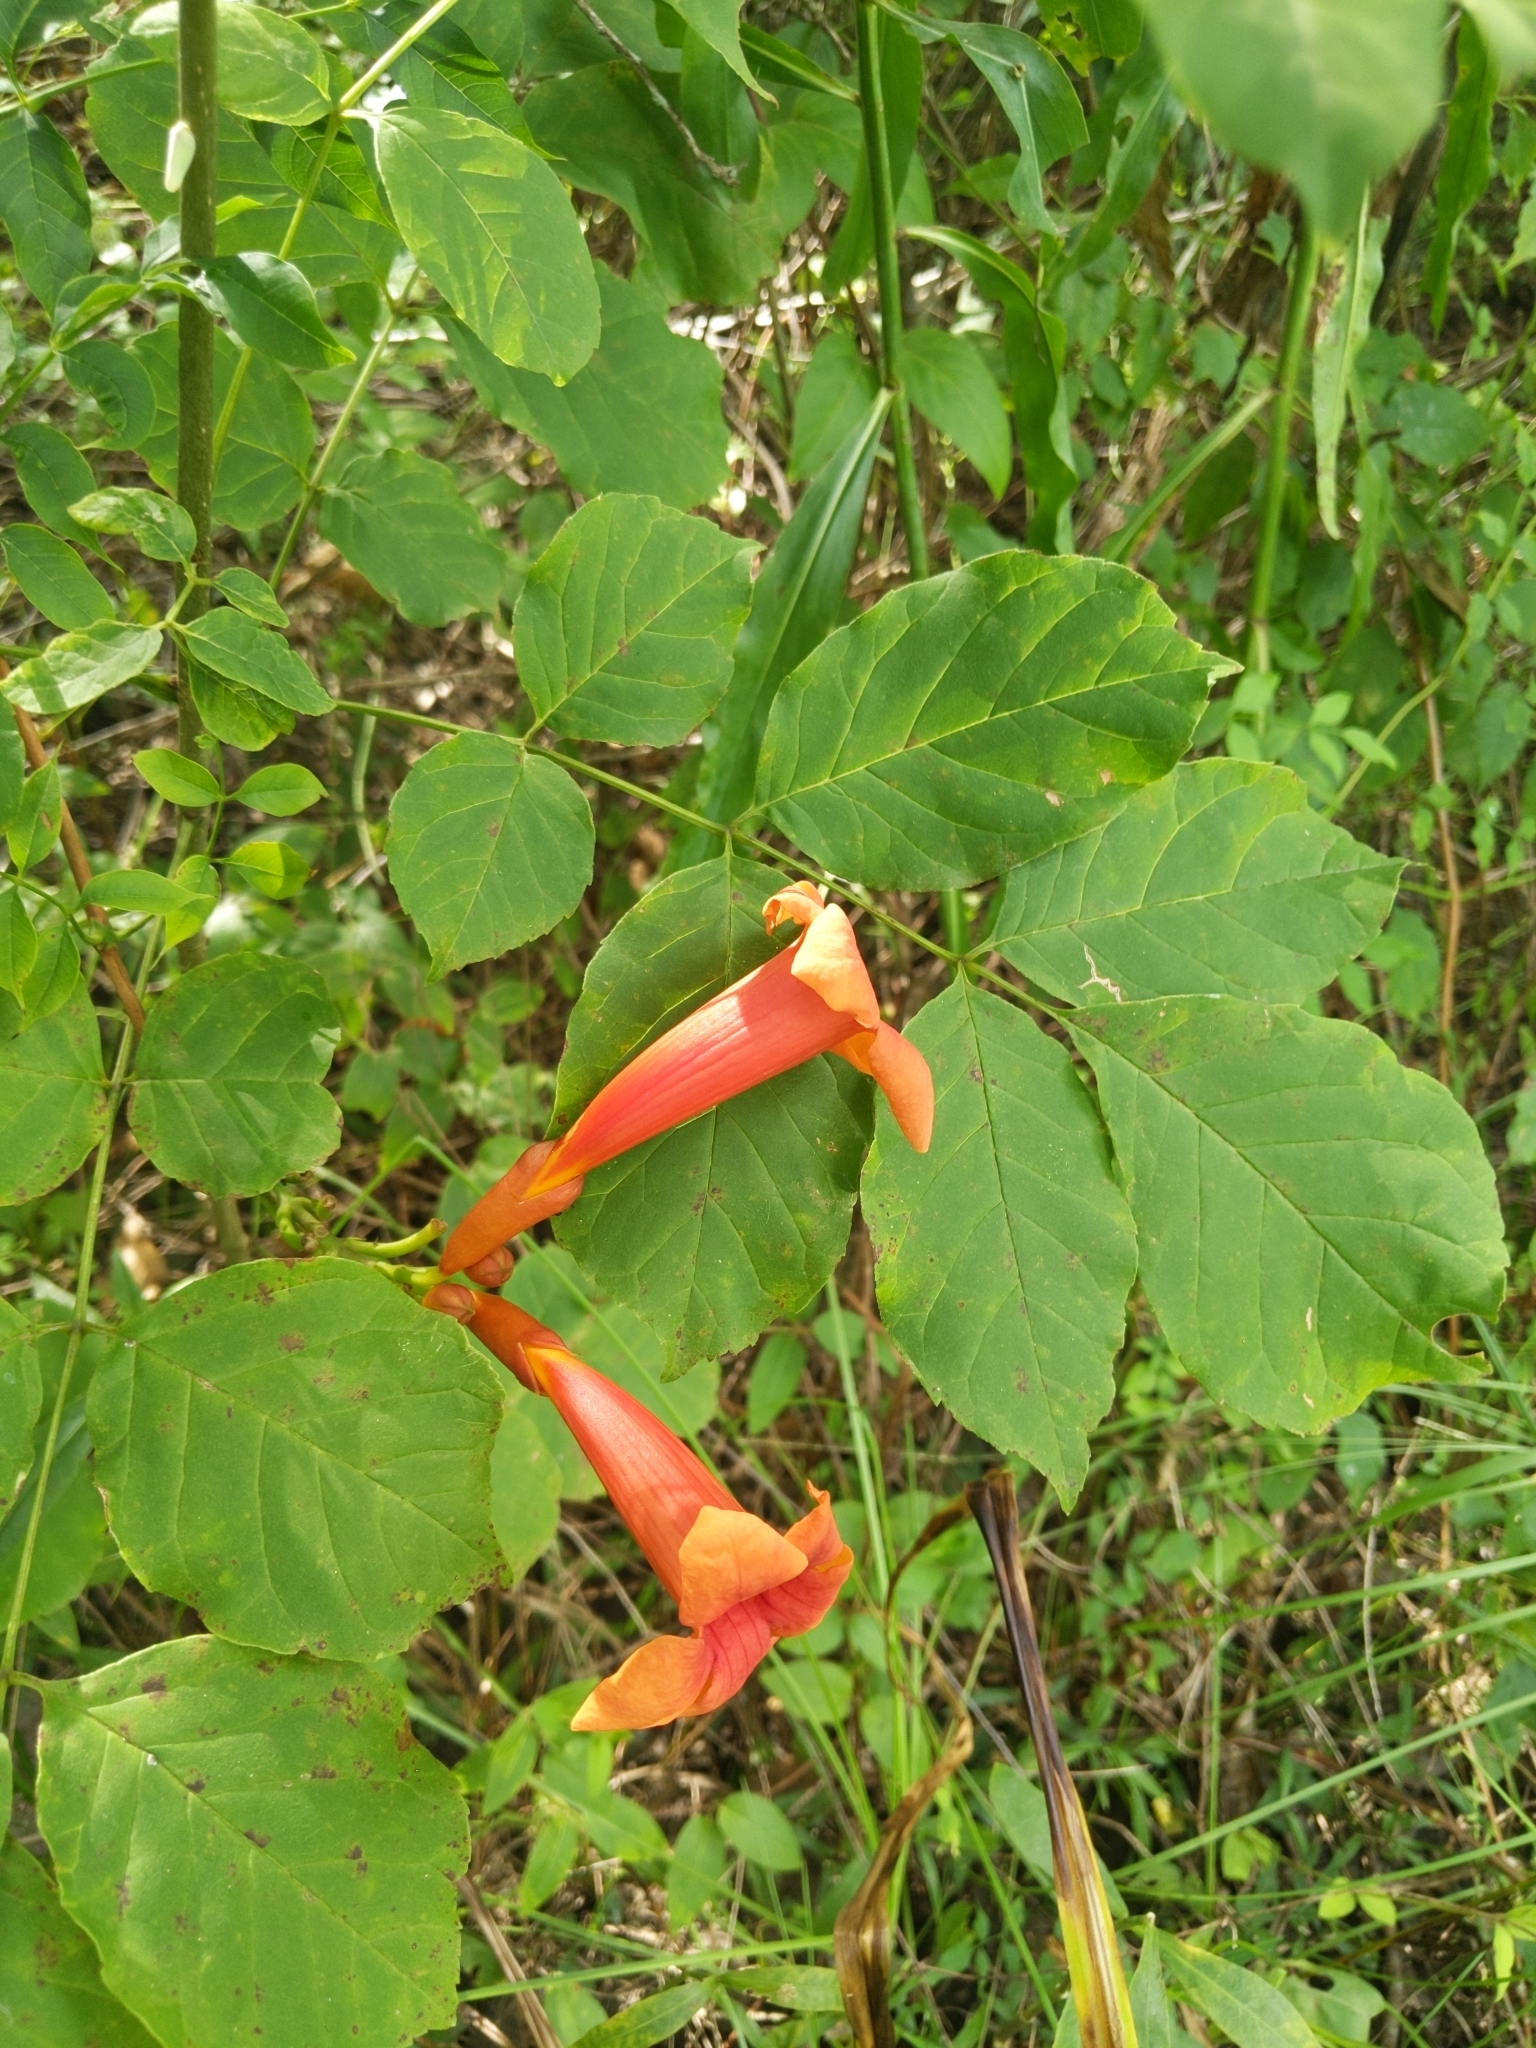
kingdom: Plantae
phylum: Tracheophyta
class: Magnoliopsida
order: Lamiales
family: Bignoniaceae
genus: Campsis
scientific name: Campsis radicans
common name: Trumpet-creeper
